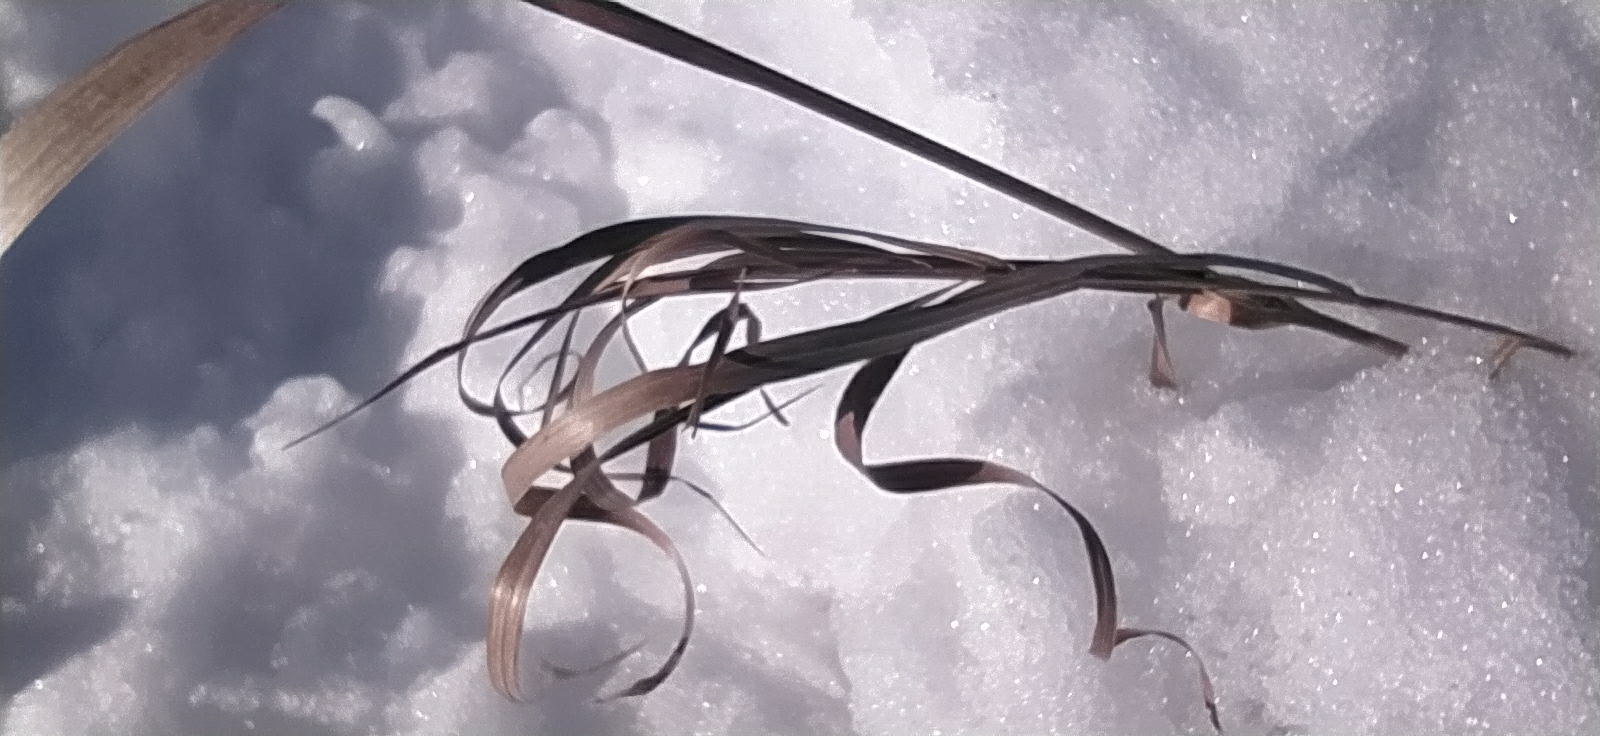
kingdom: Plantae
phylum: Tracheophyta
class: Liliopsida
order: Poales
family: Poaceae
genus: Bromus
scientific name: Bromus inermis
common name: Smooth brome
